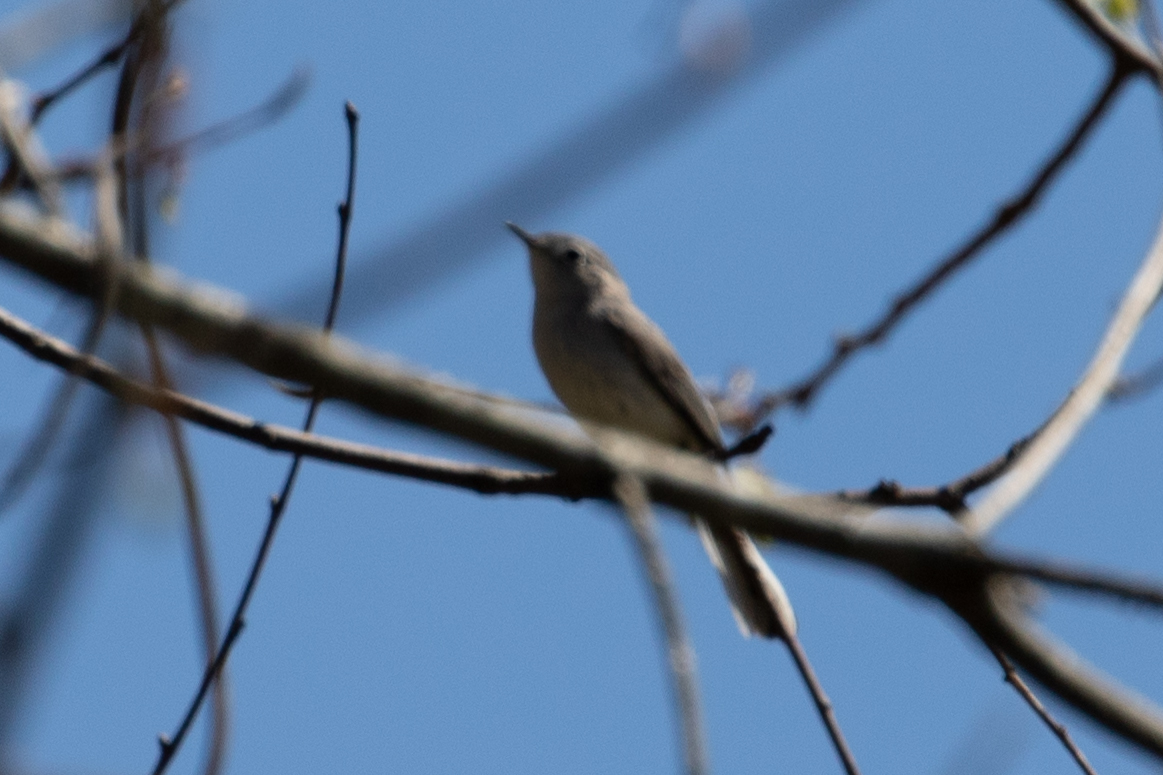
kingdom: Animalia
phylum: Chordata
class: Aves
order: Passeriformes
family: Polioptilidae
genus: Polioptila
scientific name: Polioptila caerulea
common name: Blue-gray gnatcatcher
